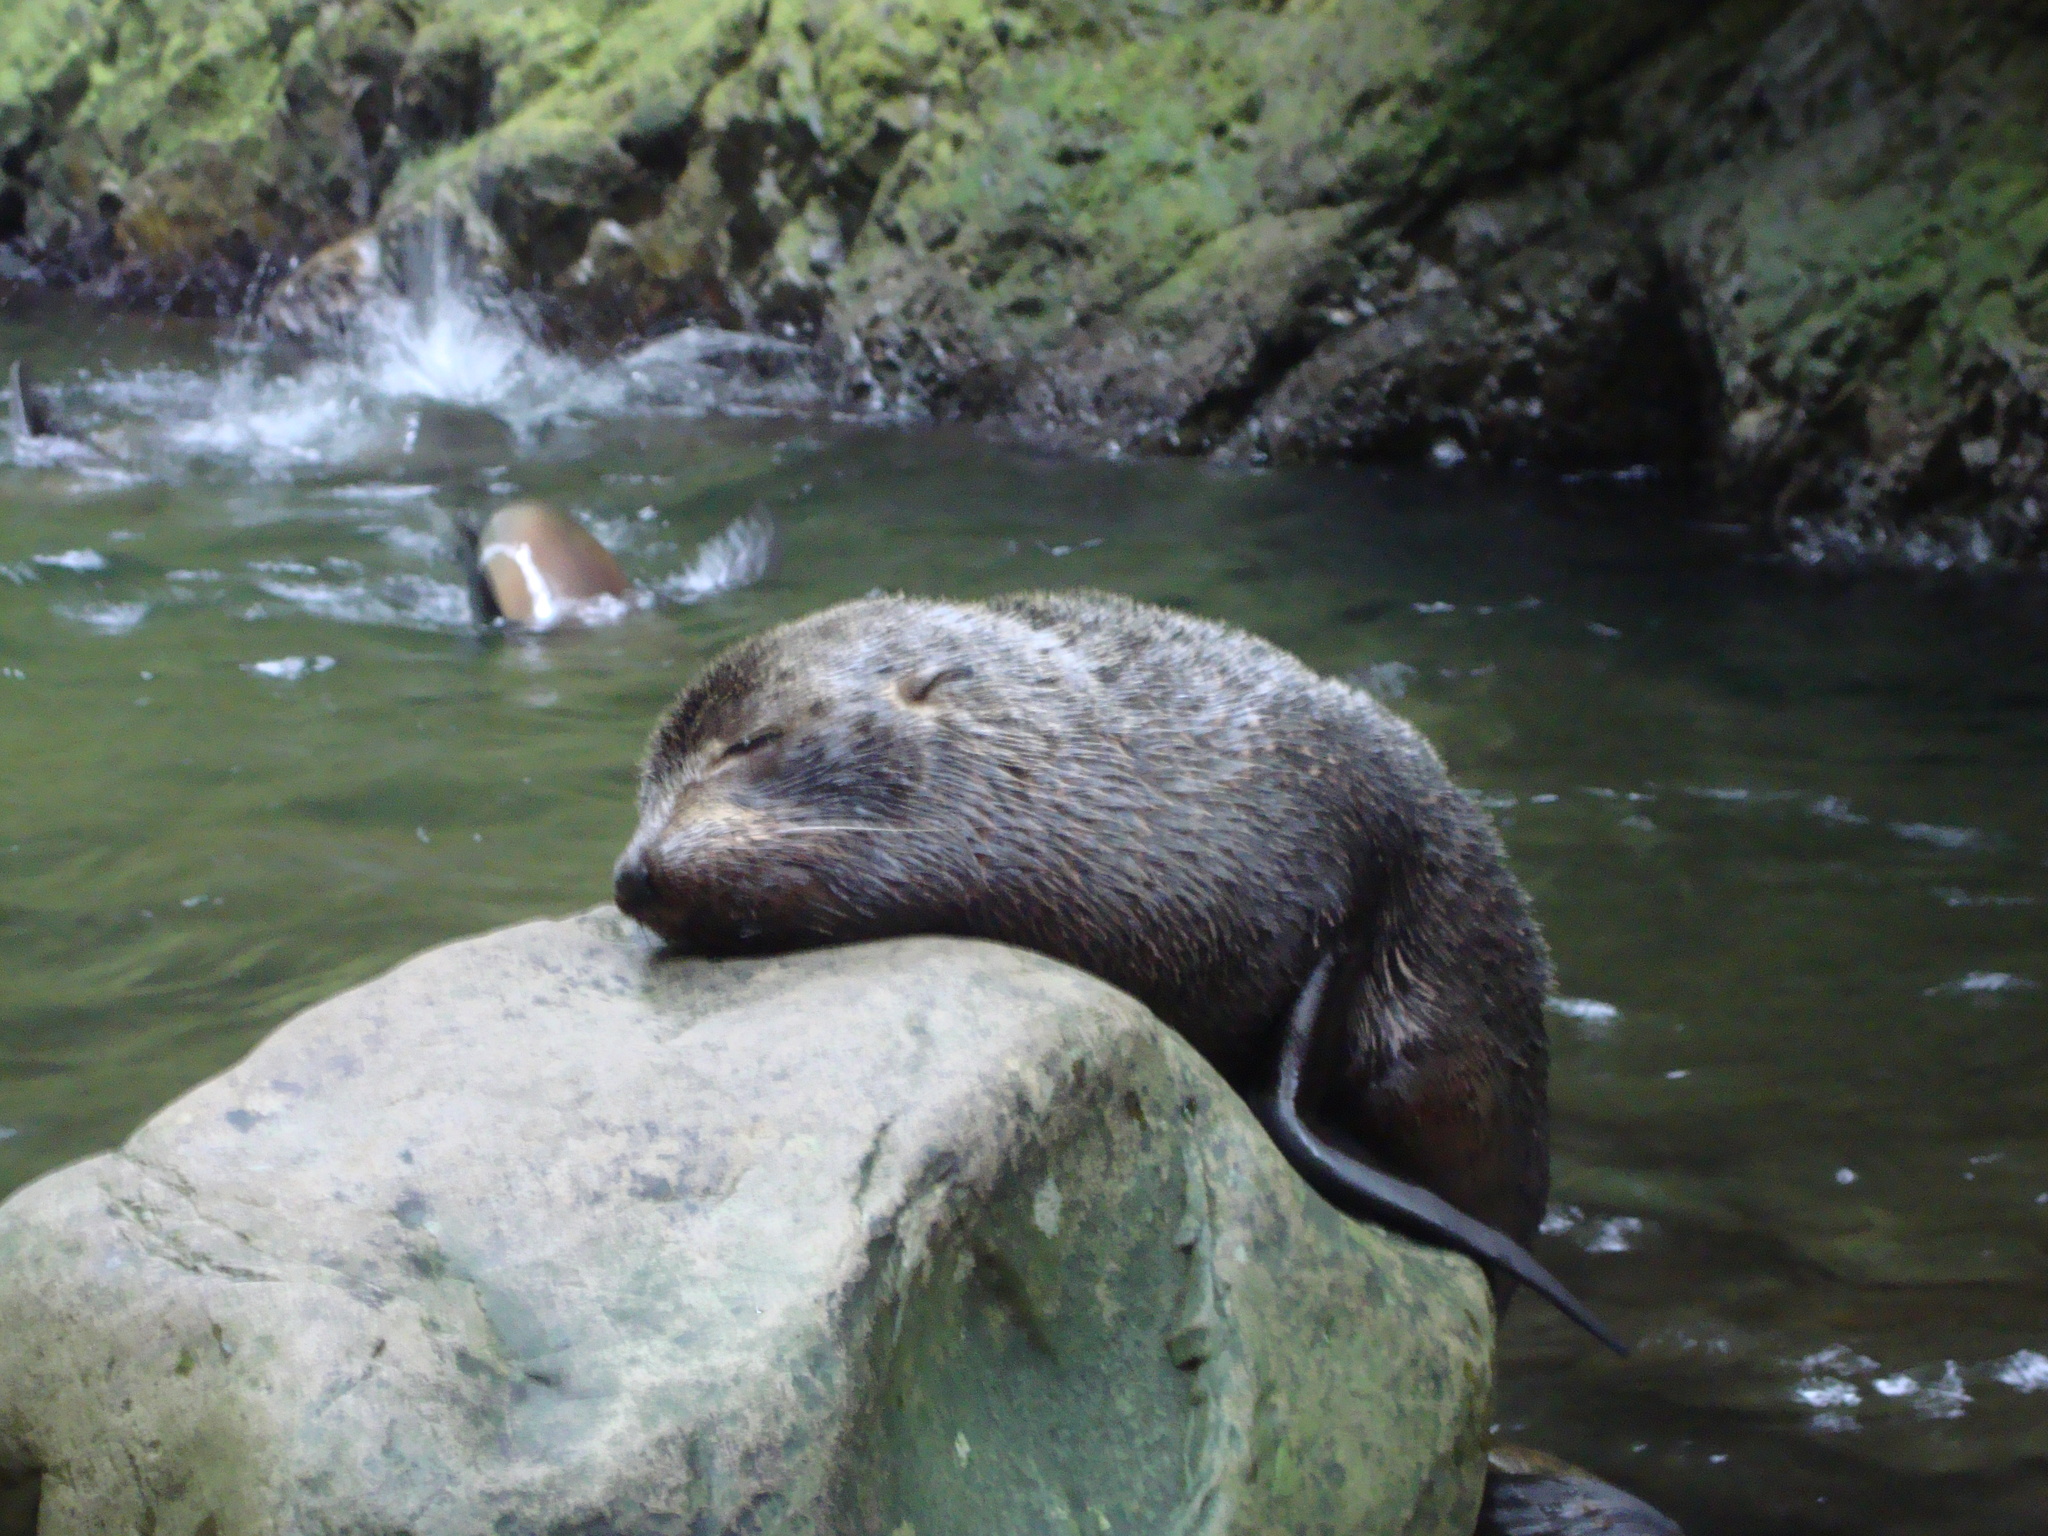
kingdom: Animalia
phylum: Chordata
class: Mammalia
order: Carnivora
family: Otariidae
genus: Arctocephalus
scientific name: Arctocephalus forsteri
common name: New zealand fur seal
